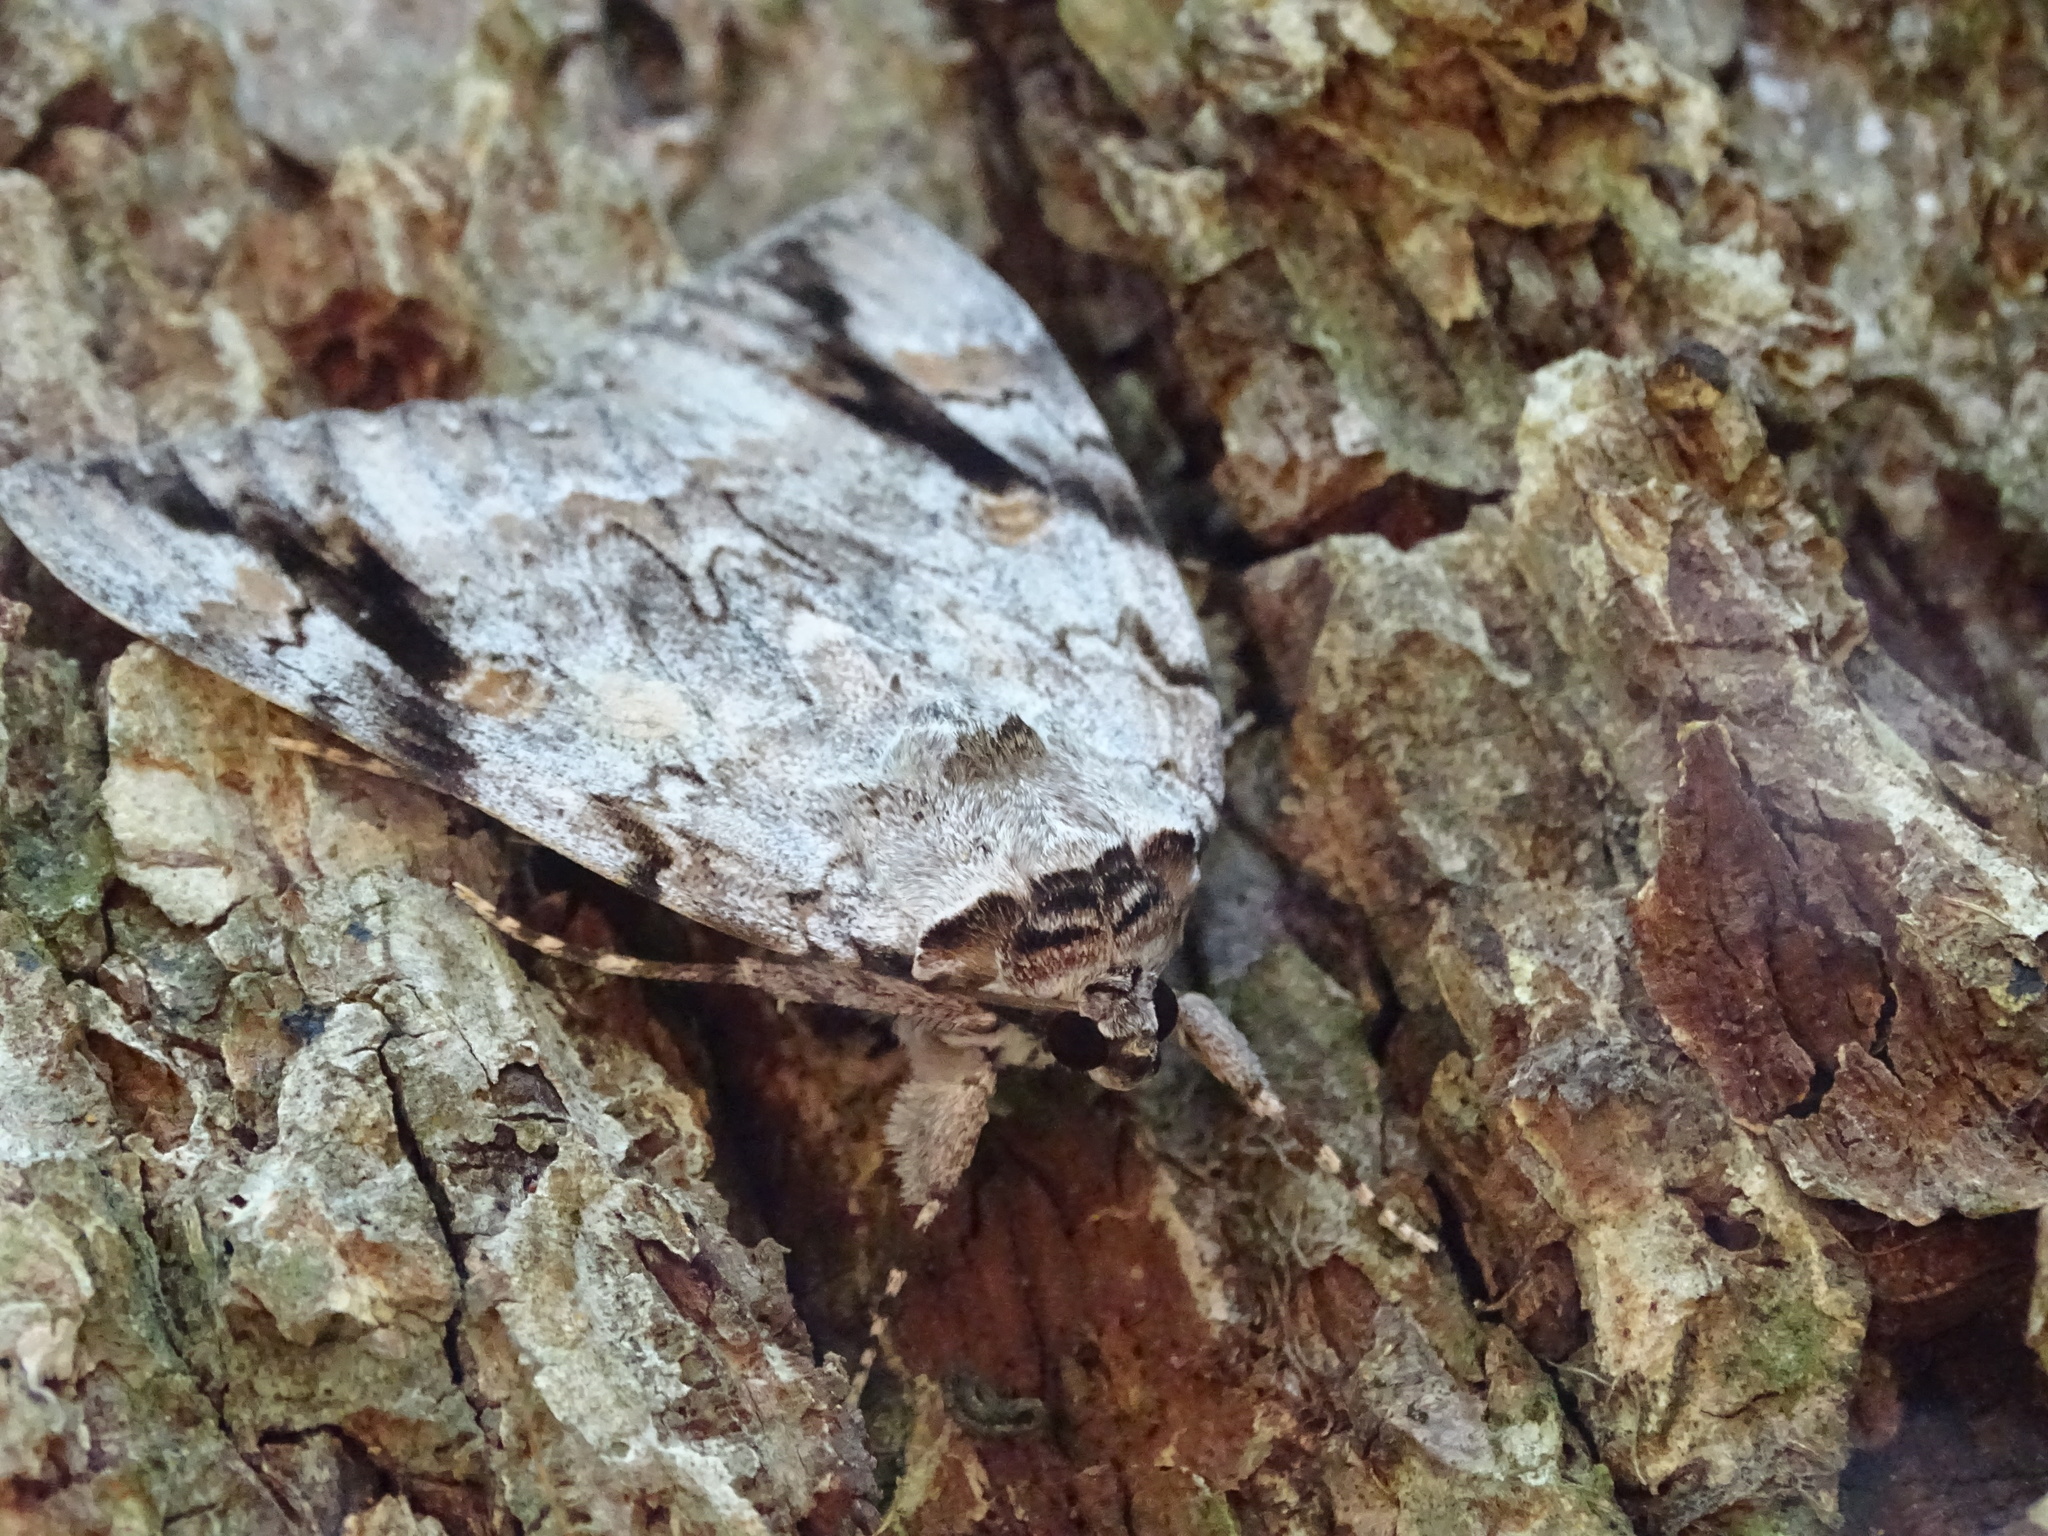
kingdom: Animalia
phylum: Arthropoda
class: Insecta
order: Lepidoptera
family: Erebidae
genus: Catocala
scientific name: Catocala maestosa
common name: Sad underwing
